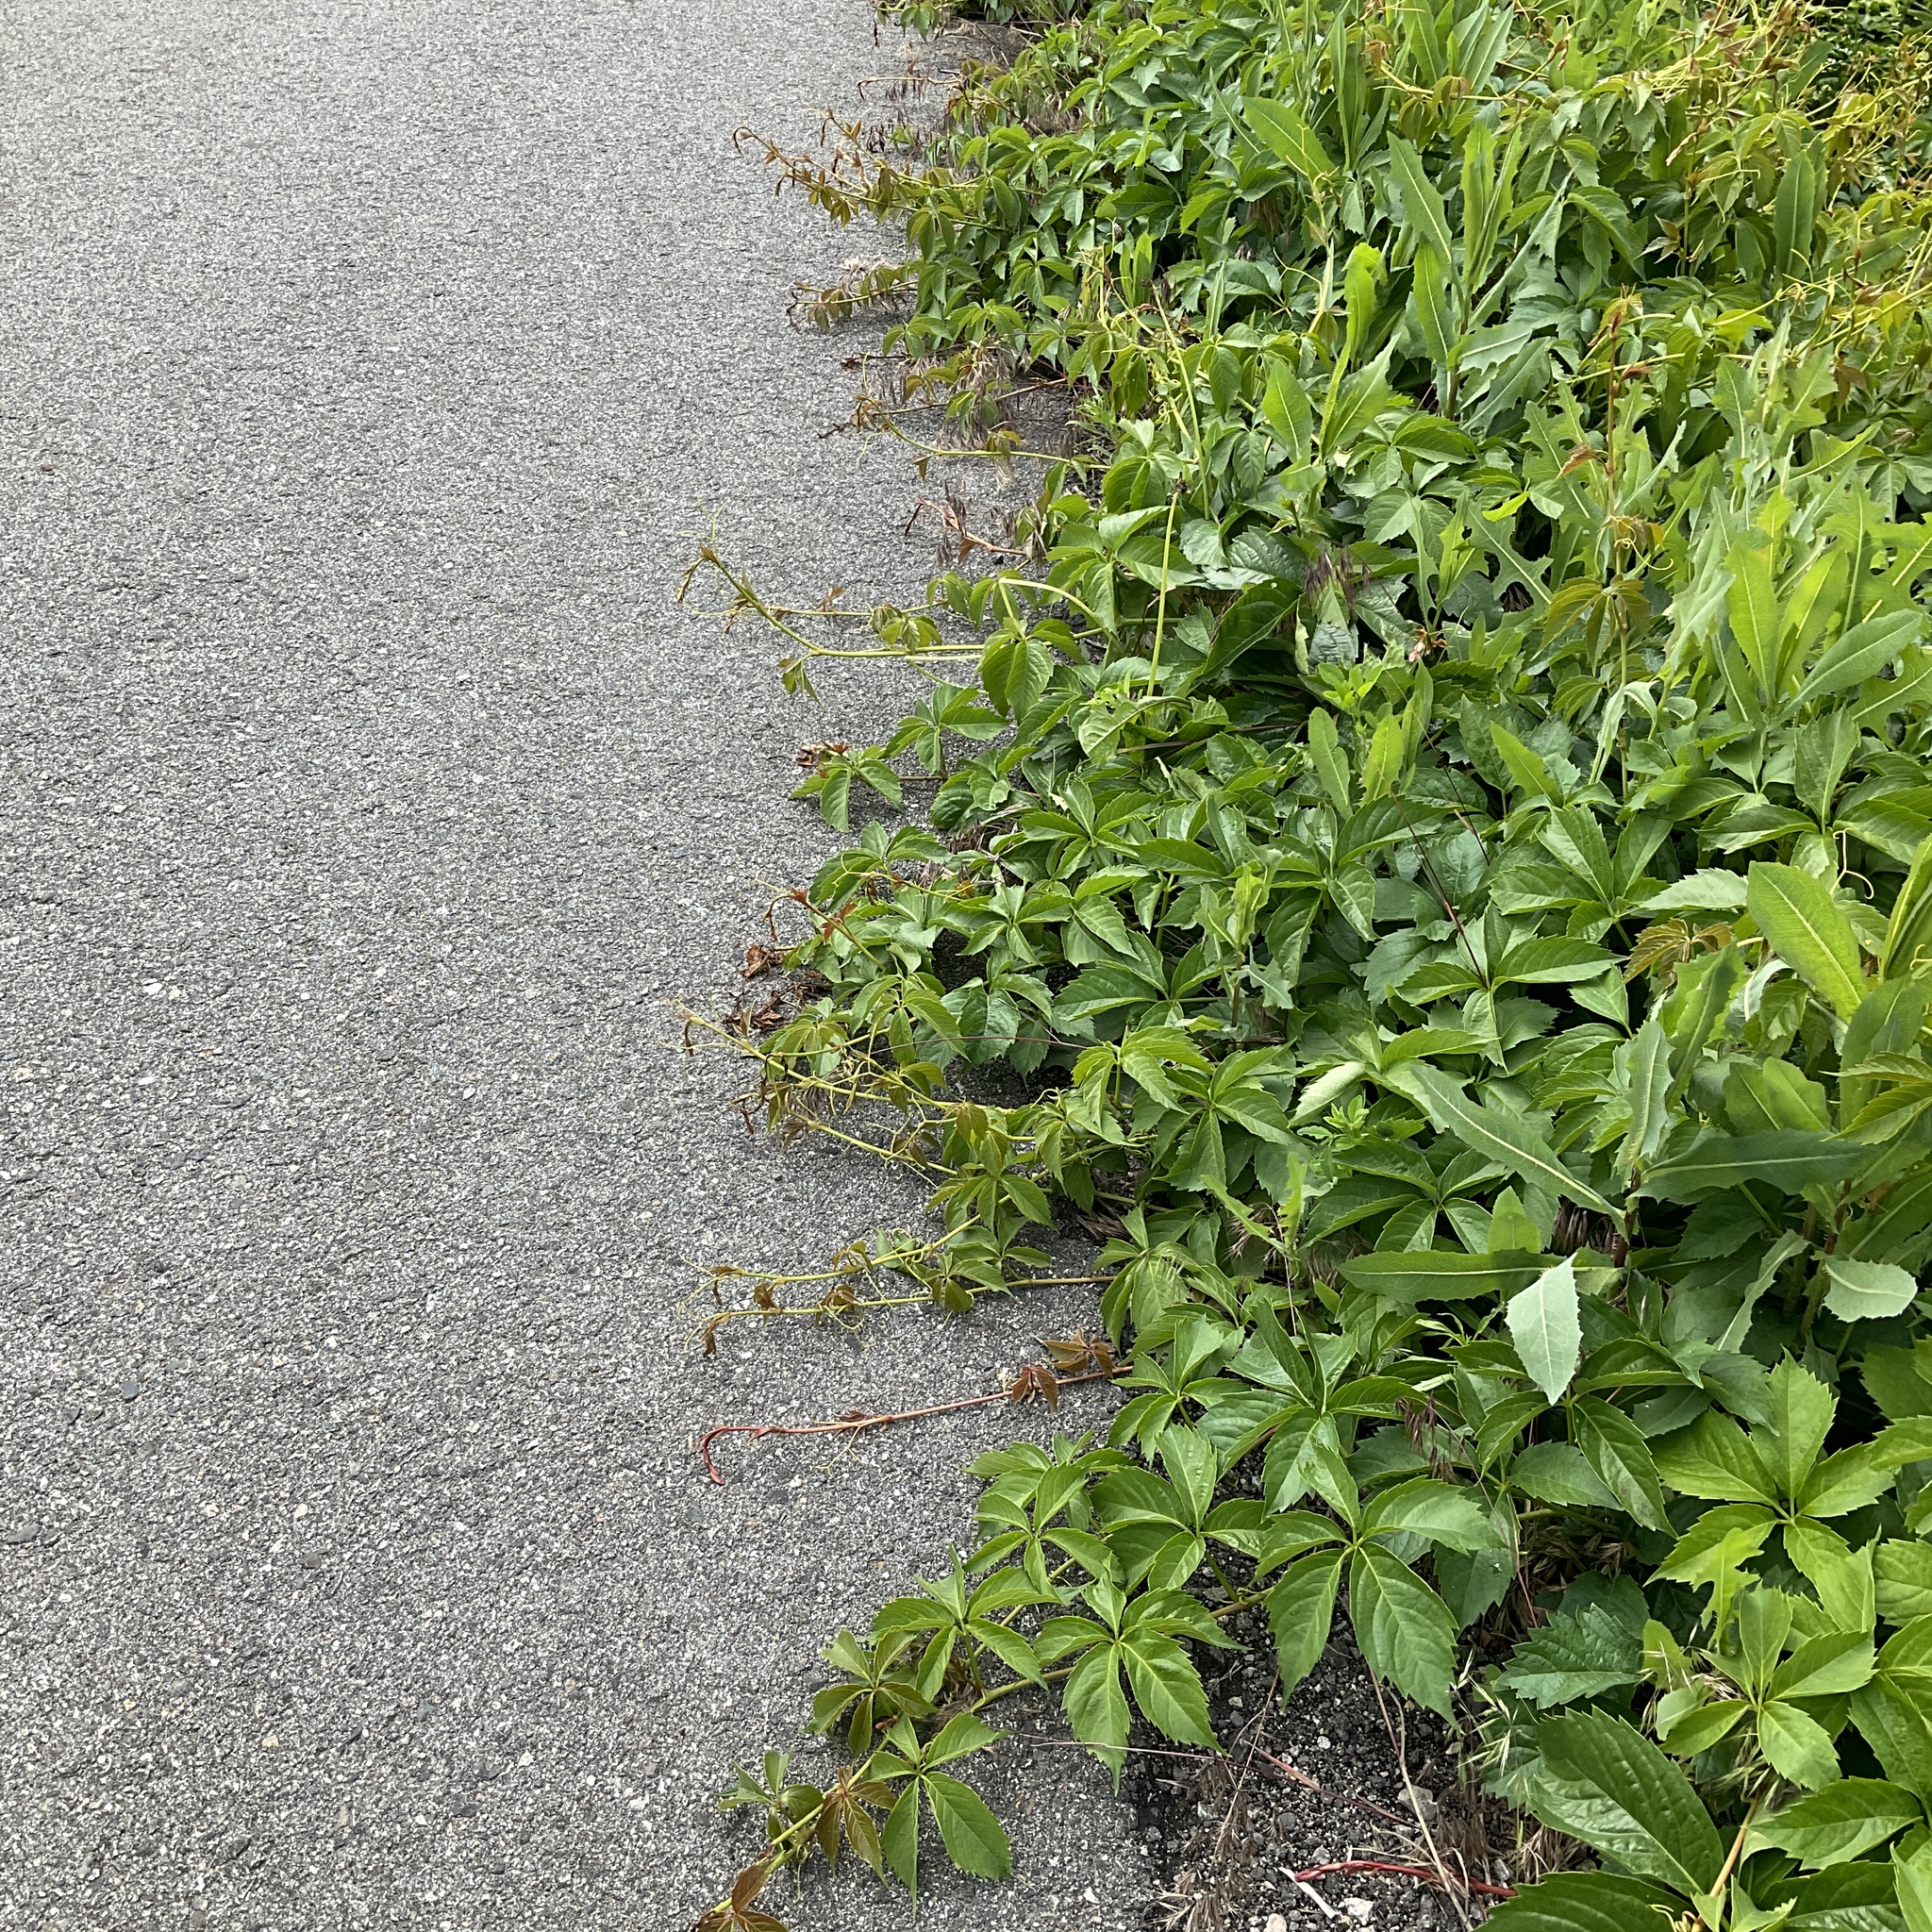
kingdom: Plantae
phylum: Tracheophyta
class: Magnoliopsida
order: Vitales
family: Vitaceae
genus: Parthenocissus
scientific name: Parthenocissus inserta
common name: False virginia-creeper
